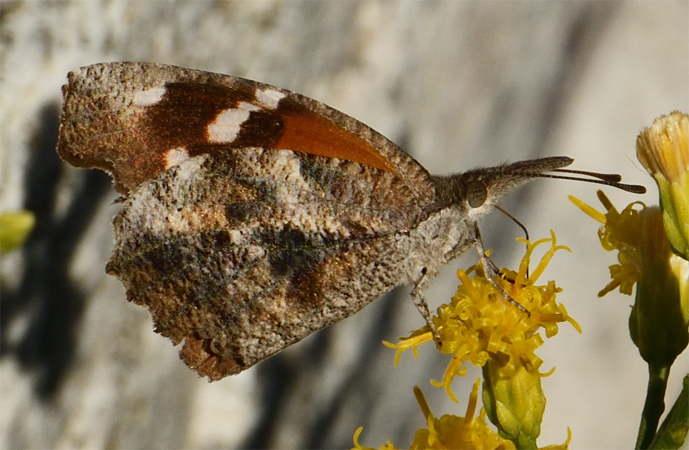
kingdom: Animalia
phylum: Arthropoda
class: Insecta
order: Lepidoptera
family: Nymphalidae
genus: Libytheana
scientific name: Libytheana carinenta
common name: American snout
